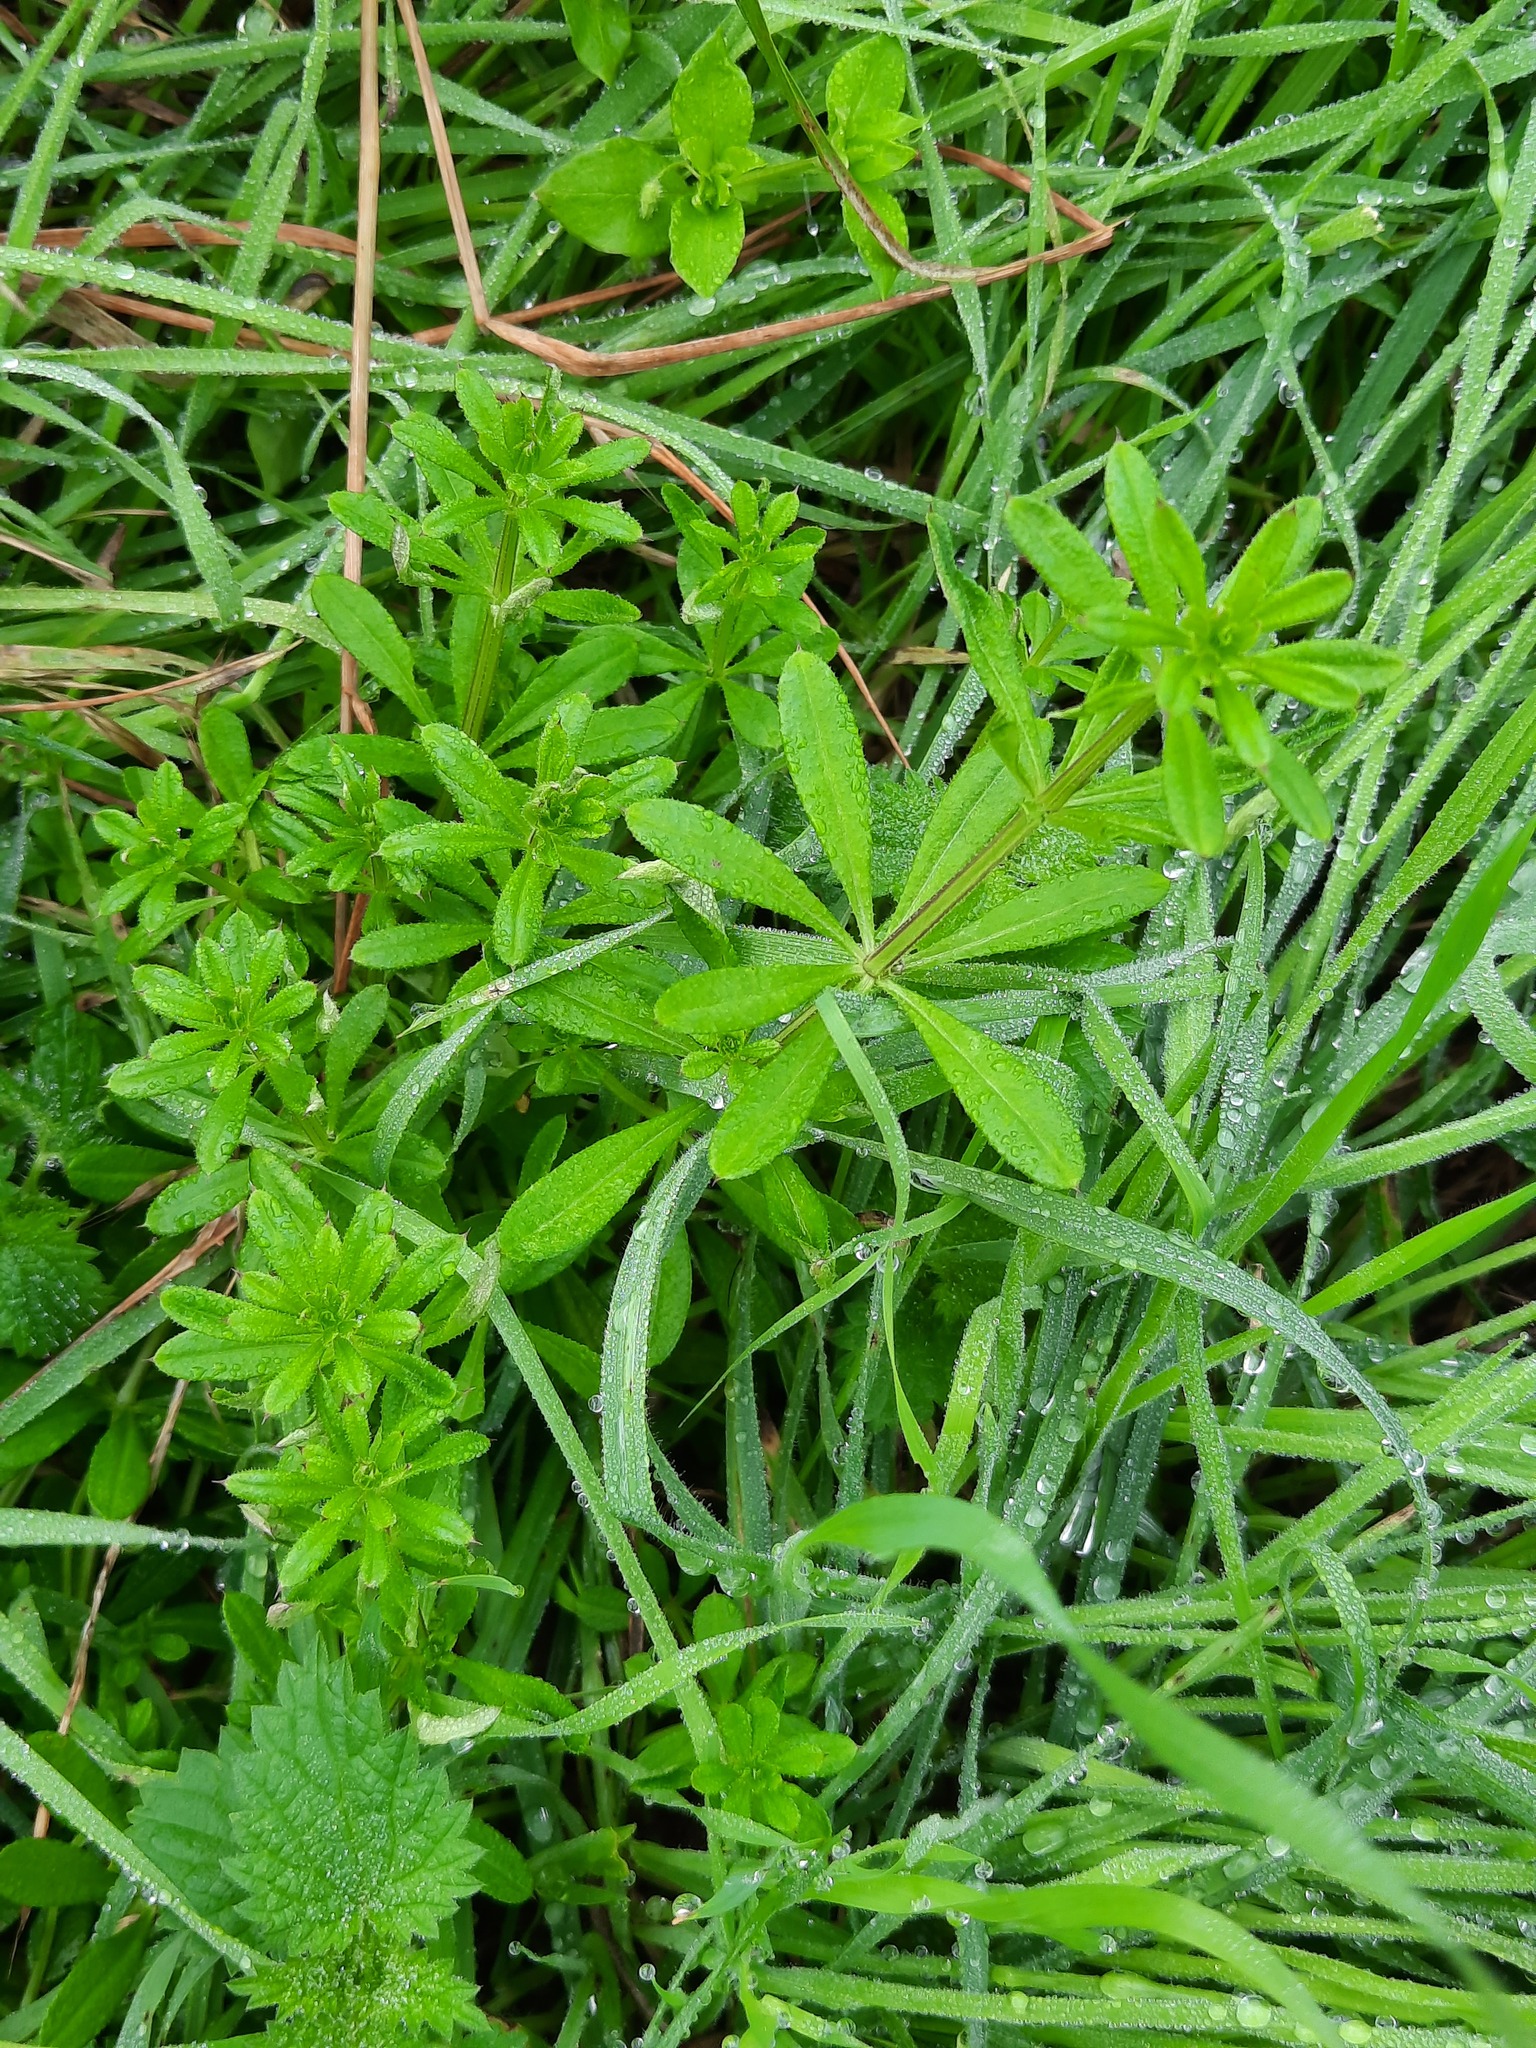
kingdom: Plantae
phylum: Tracheophyta
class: Magnoliopsida
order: Gentianales
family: Rubiaceae
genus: Galium
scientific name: Galium aparine
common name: Cleavers
